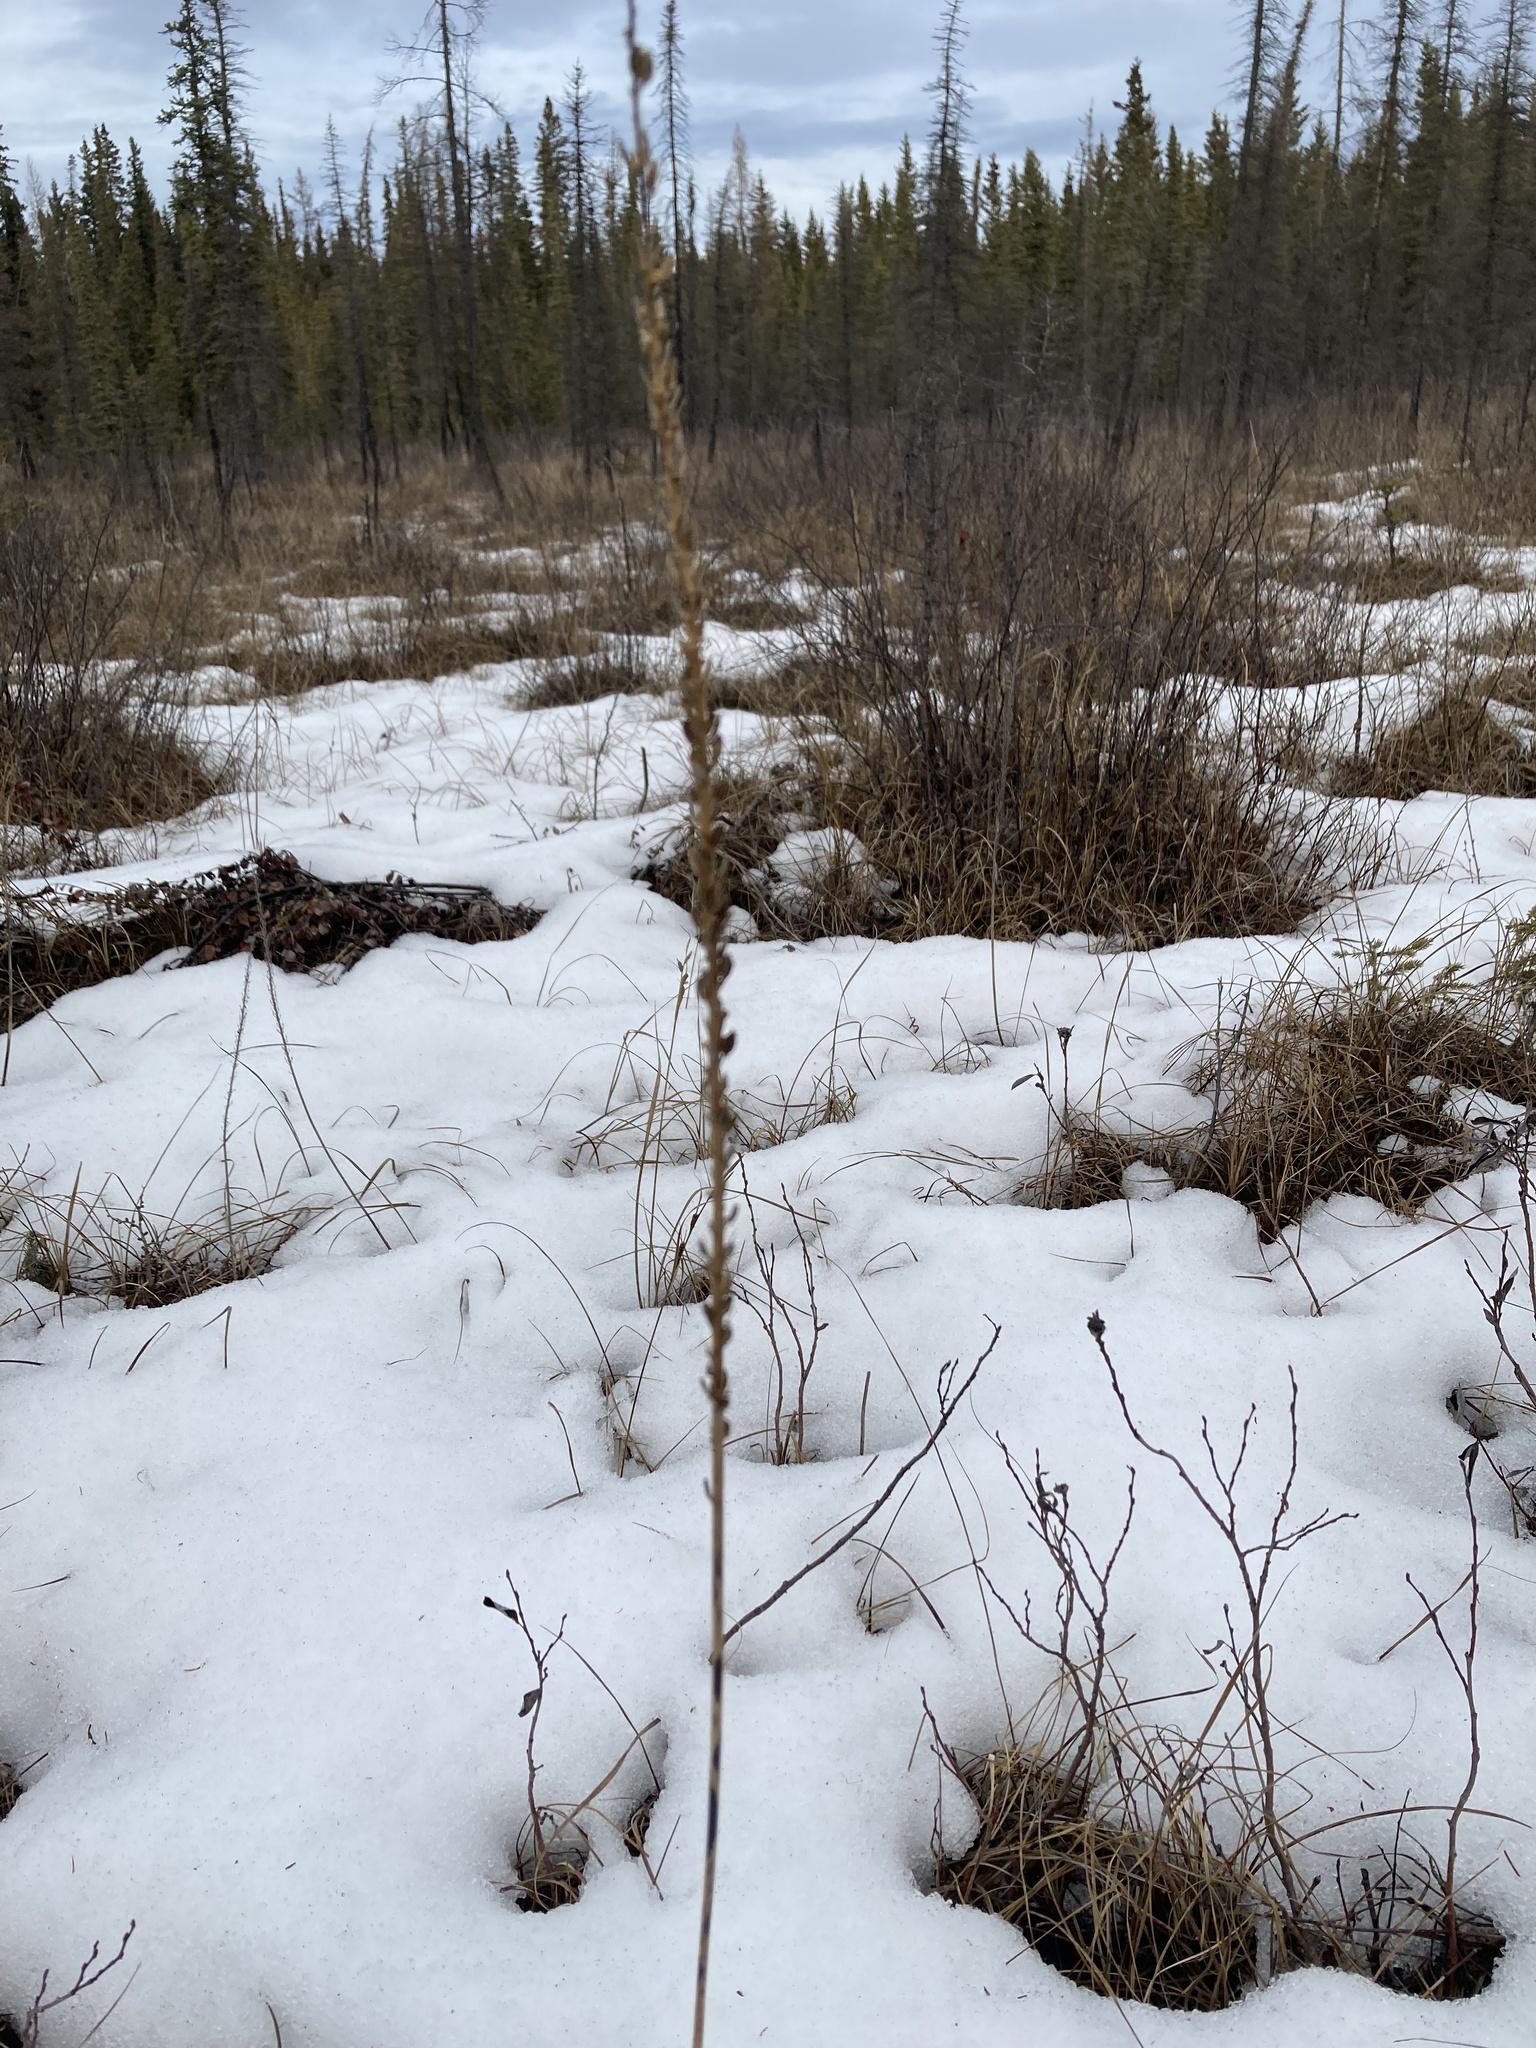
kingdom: Plantae
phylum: Tracheophyta
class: Liliopsida
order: Alismatales
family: Juncaginaceae
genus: Triglochin
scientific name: Triglochin maritima
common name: Sea arrowgrass
